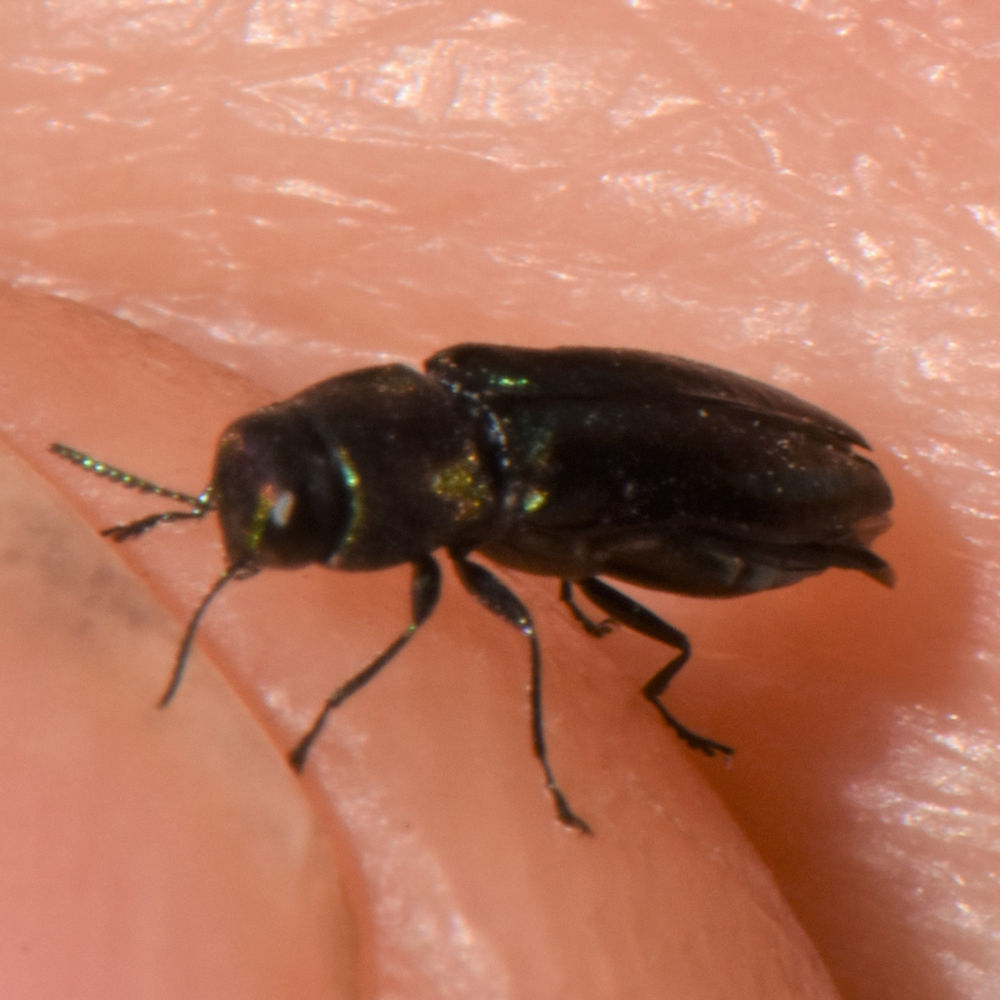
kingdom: Animalia
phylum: Arthropoda
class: Insecta
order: Coleoptera
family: Buprestidae
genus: Anthaxia
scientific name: Anthaxia quercata
